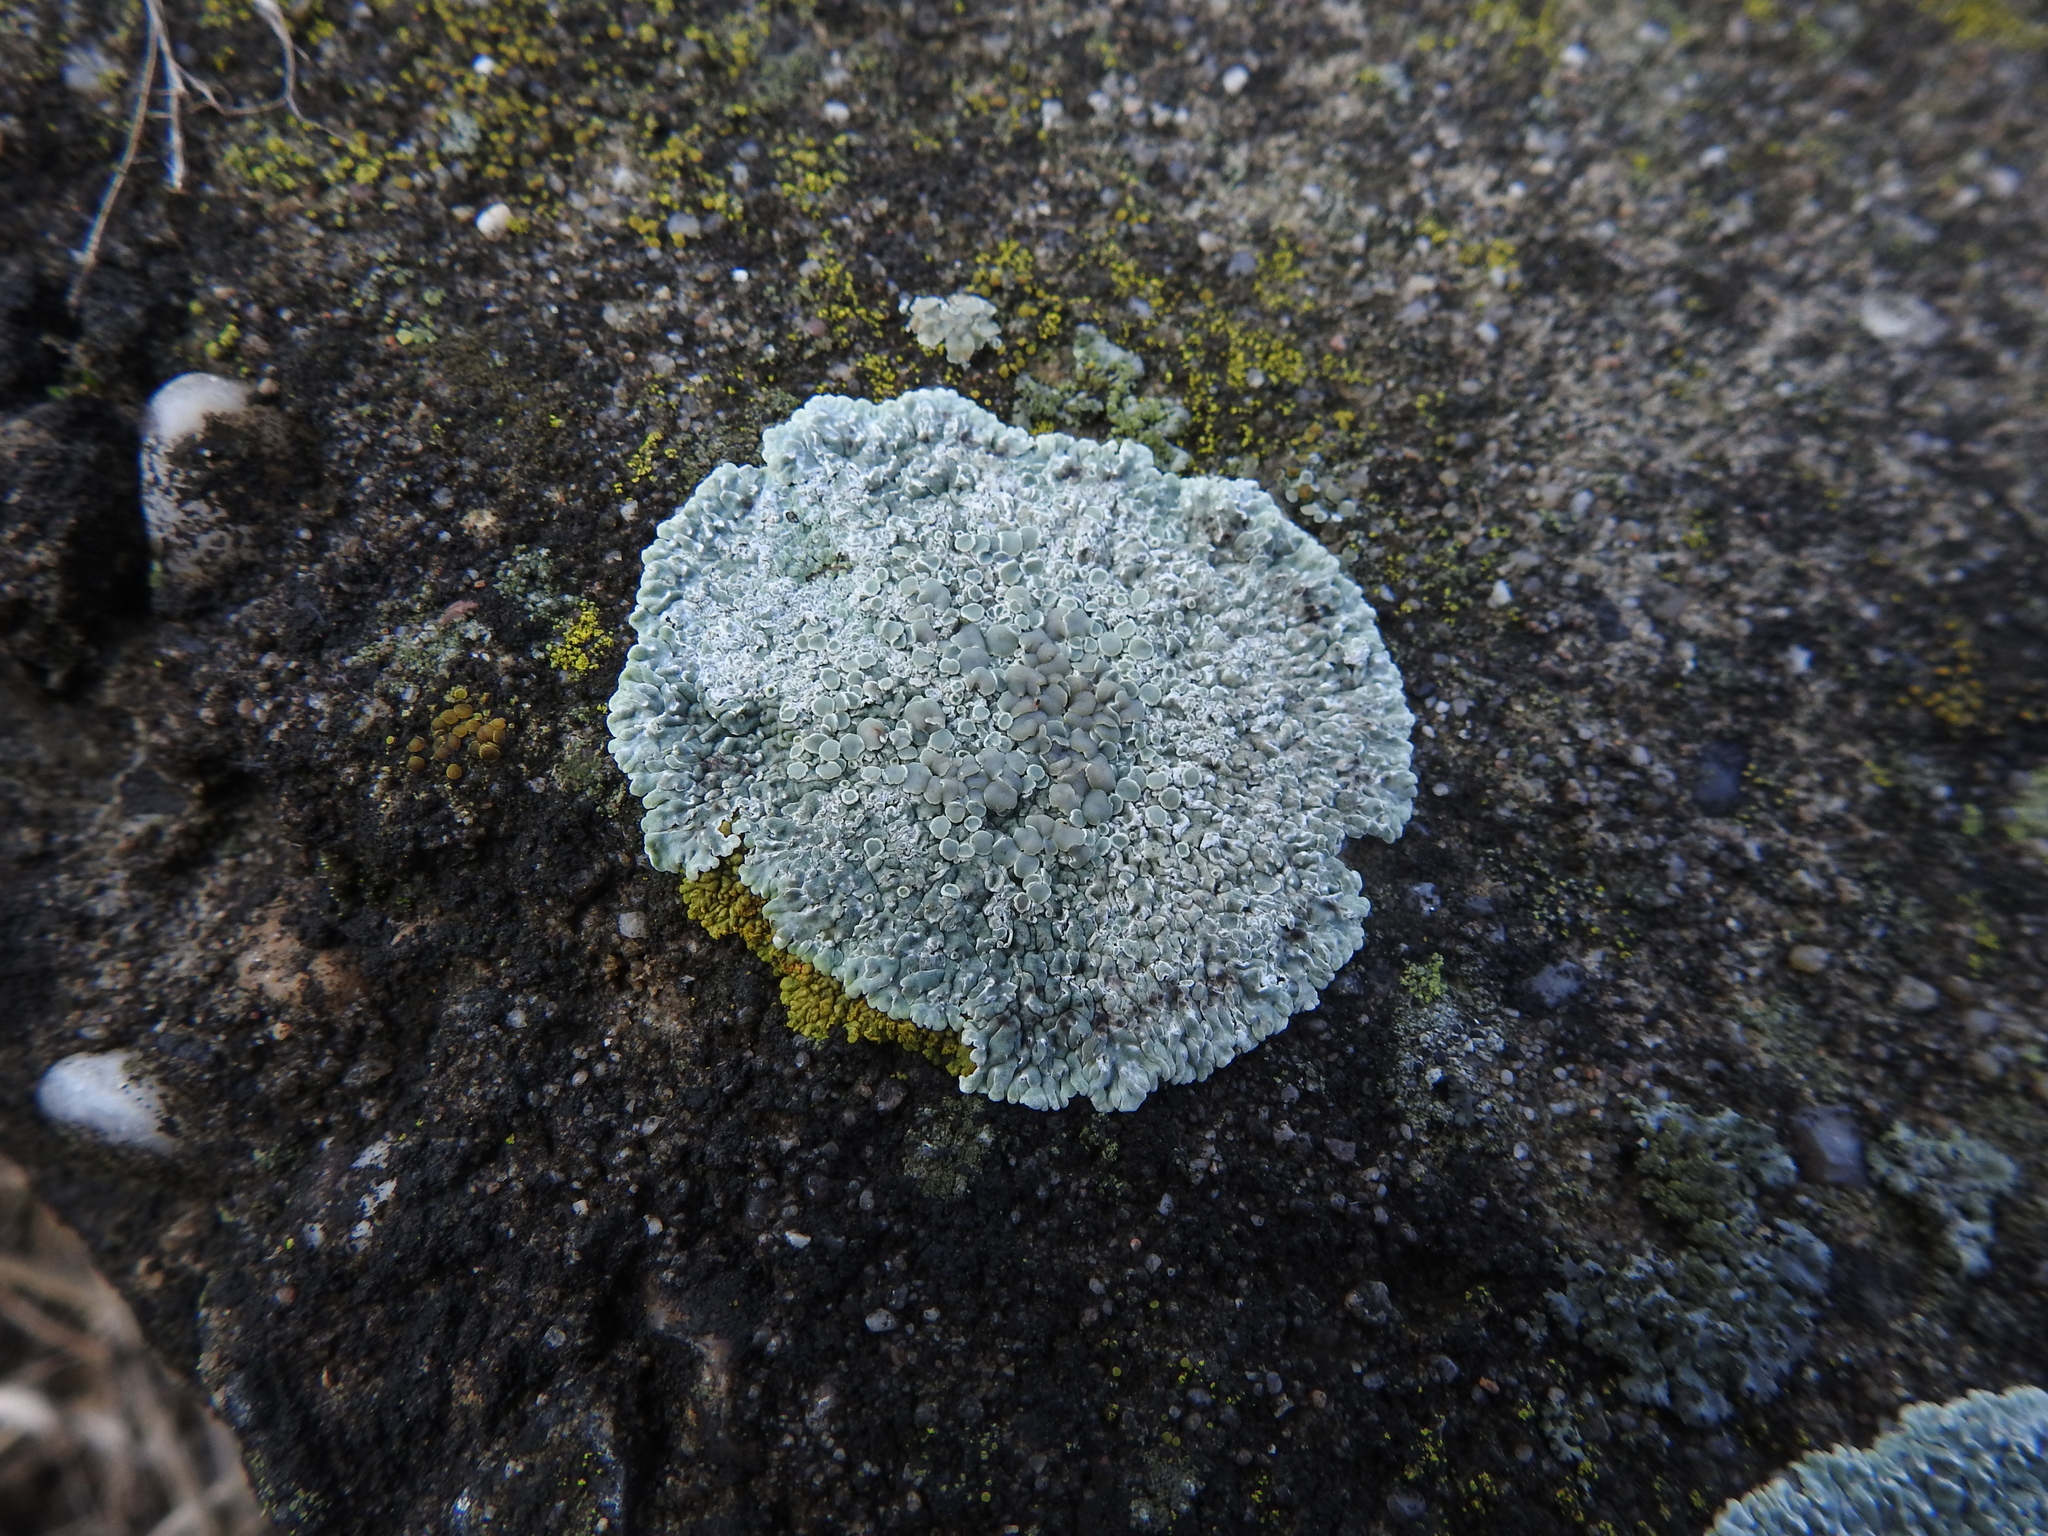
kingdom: Fungi
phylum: Ascomycota
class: Lecanoromycetes
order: Lecanorales
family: Lecanoraceae
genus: Protoparmeliopsis
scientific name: Protoparmeliopsis muralis
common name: Stonewall rim lichen
